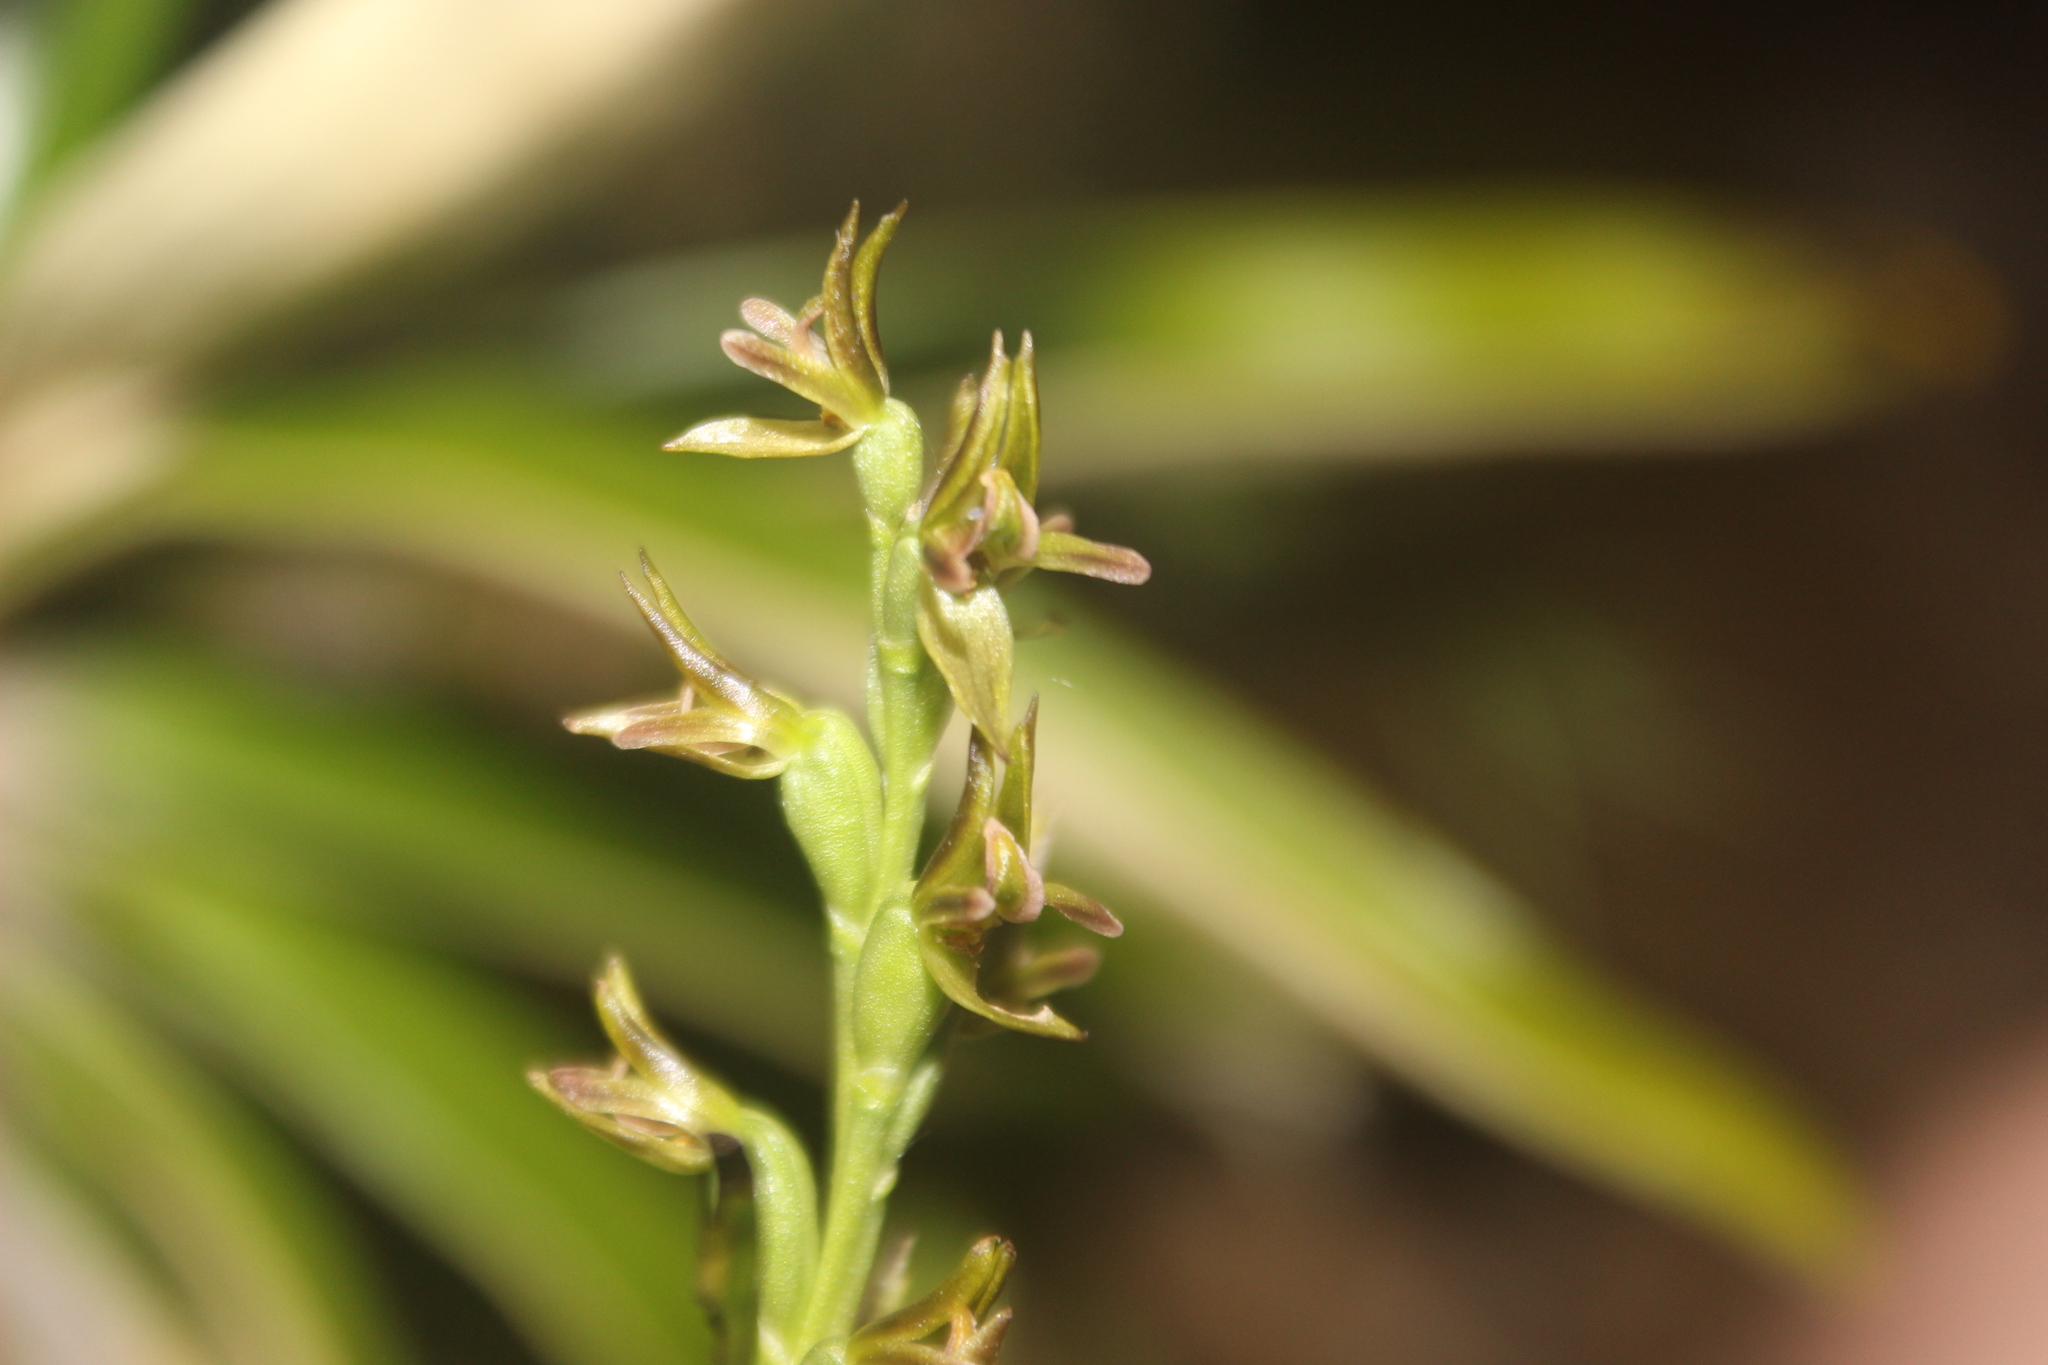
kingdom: Plantae
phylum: Tracheophyta
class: Liliopsida
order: Asparagales
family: Orchidaceae
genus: Prasophyllum
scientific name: Prasophyllum colensoi
